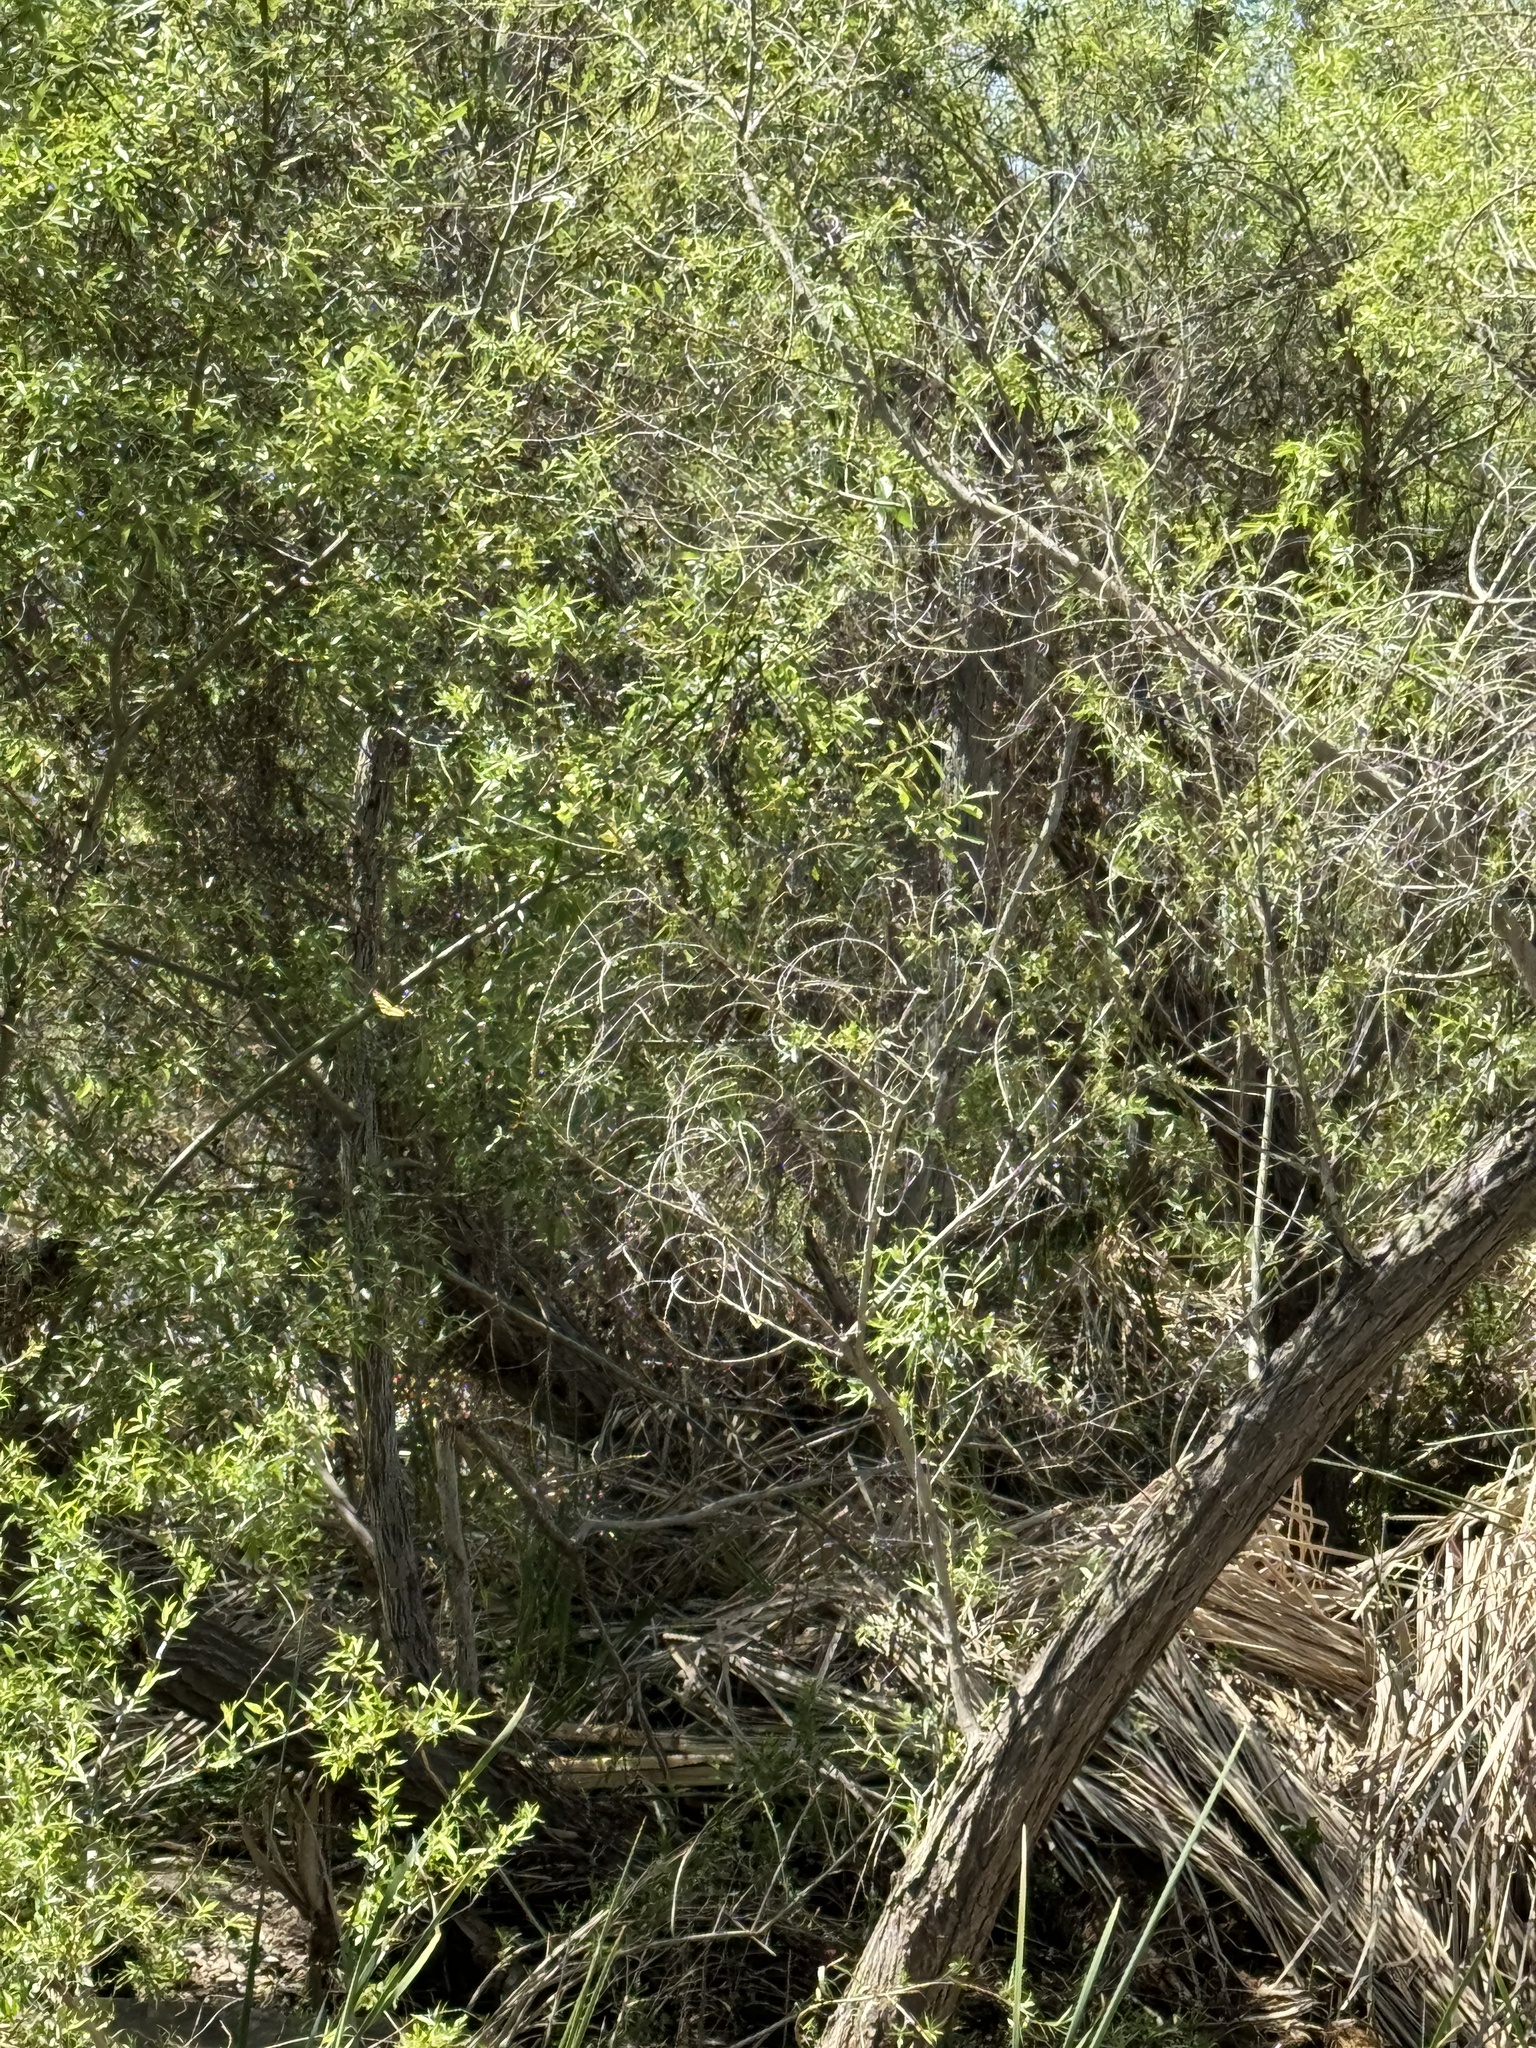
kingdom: Animalia
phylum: Arthropoda
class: Insecta
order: Lepidoptera
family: Papilionidae
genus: Papilio
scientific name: Papilio rutulus
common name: Western tiger swallowtail
